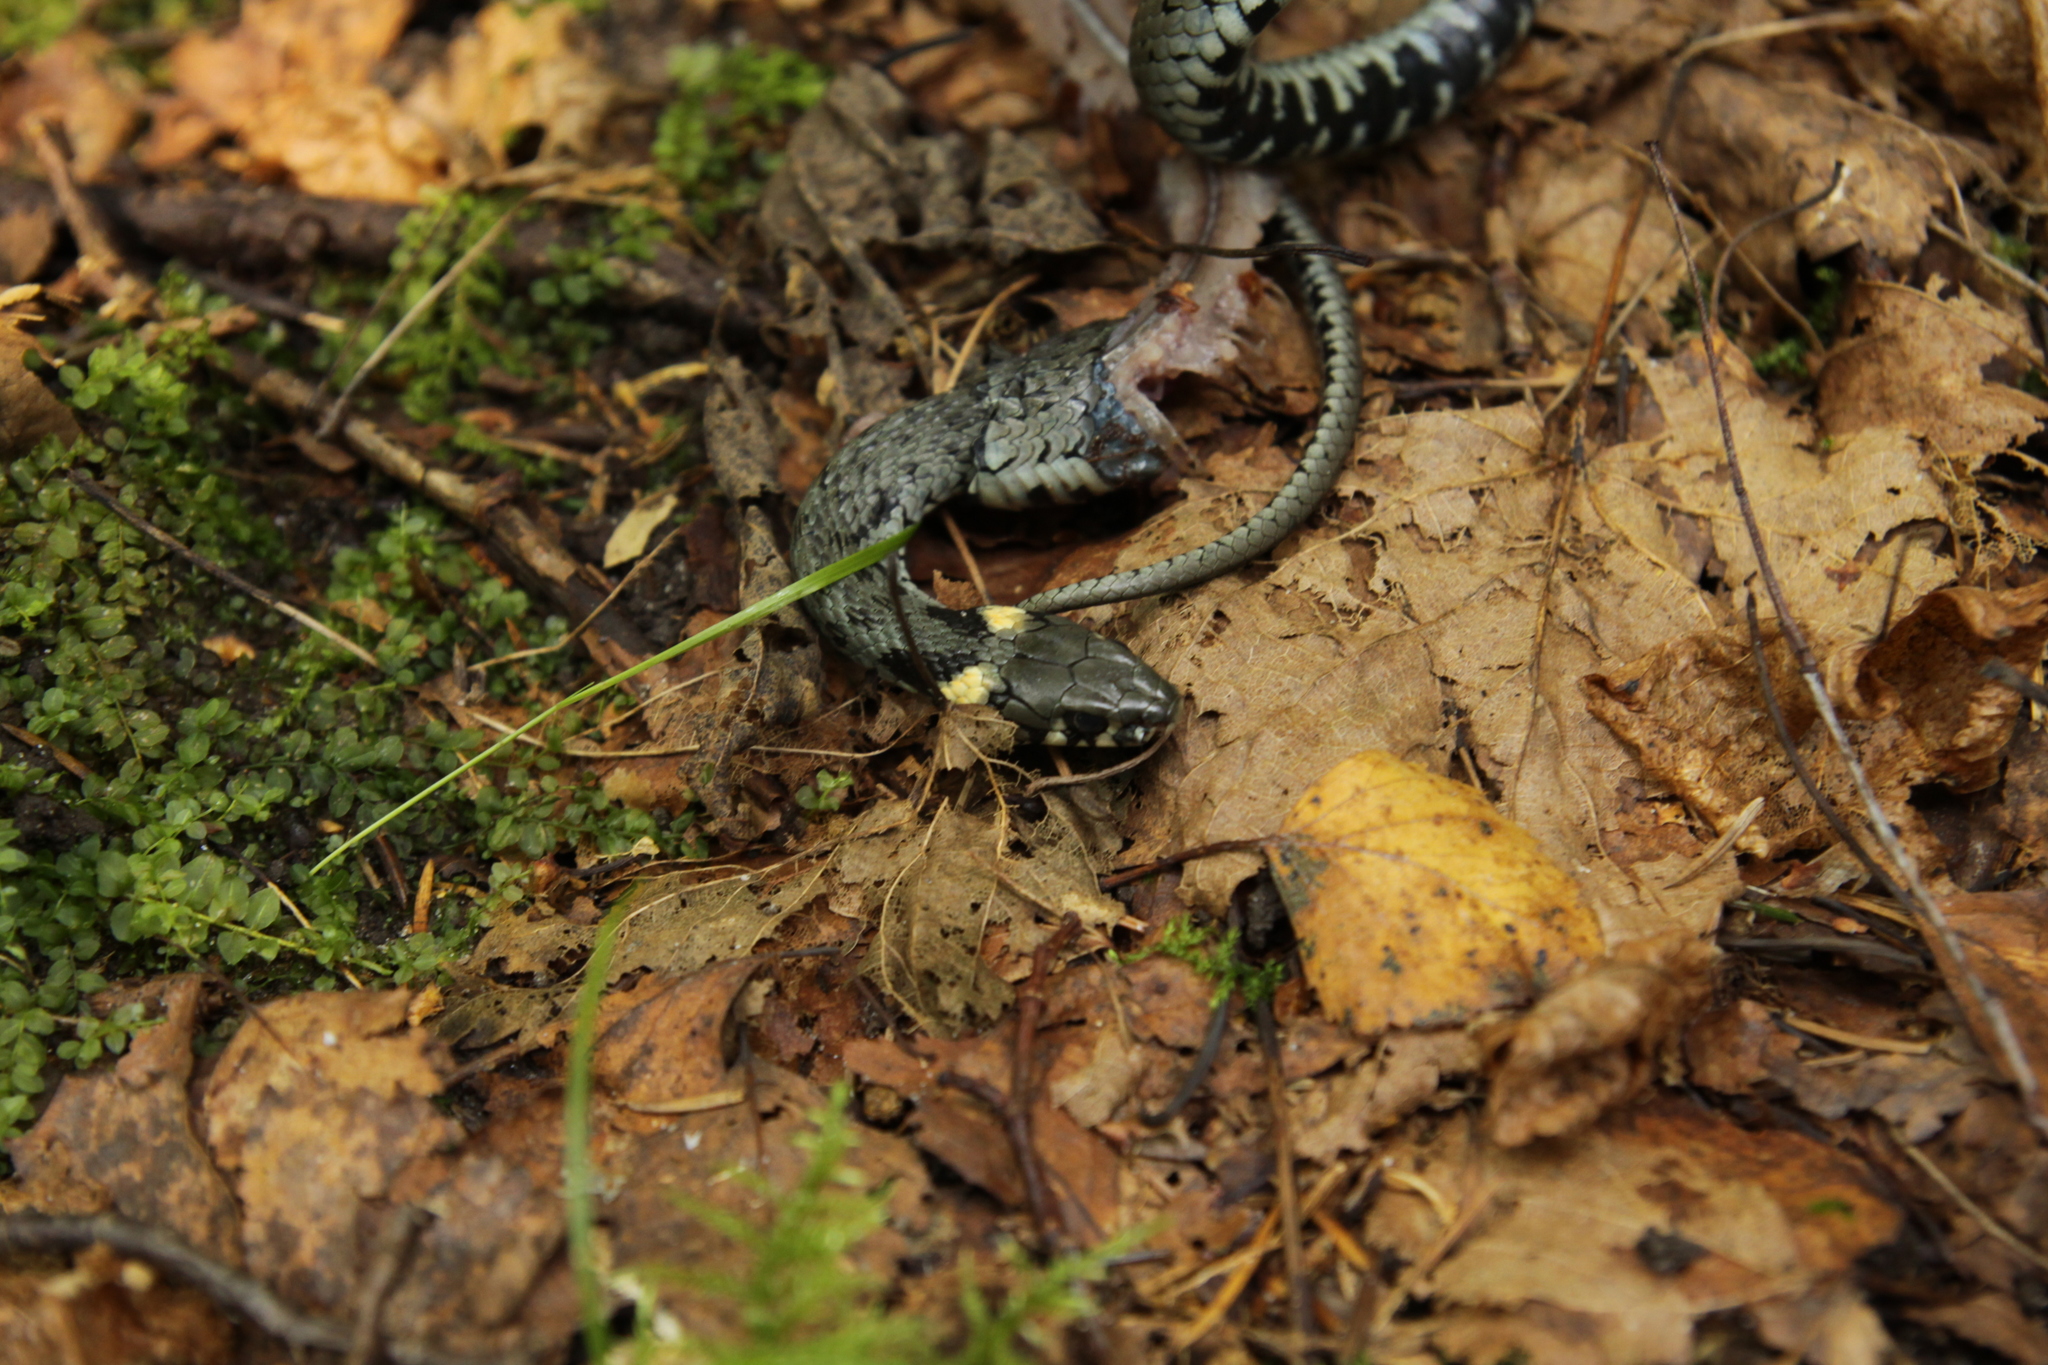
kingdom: Animalia
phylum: Chordata
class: Squamata
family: Colubridae
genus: Natrix
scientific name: Natrix natrix
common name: Grass snake
